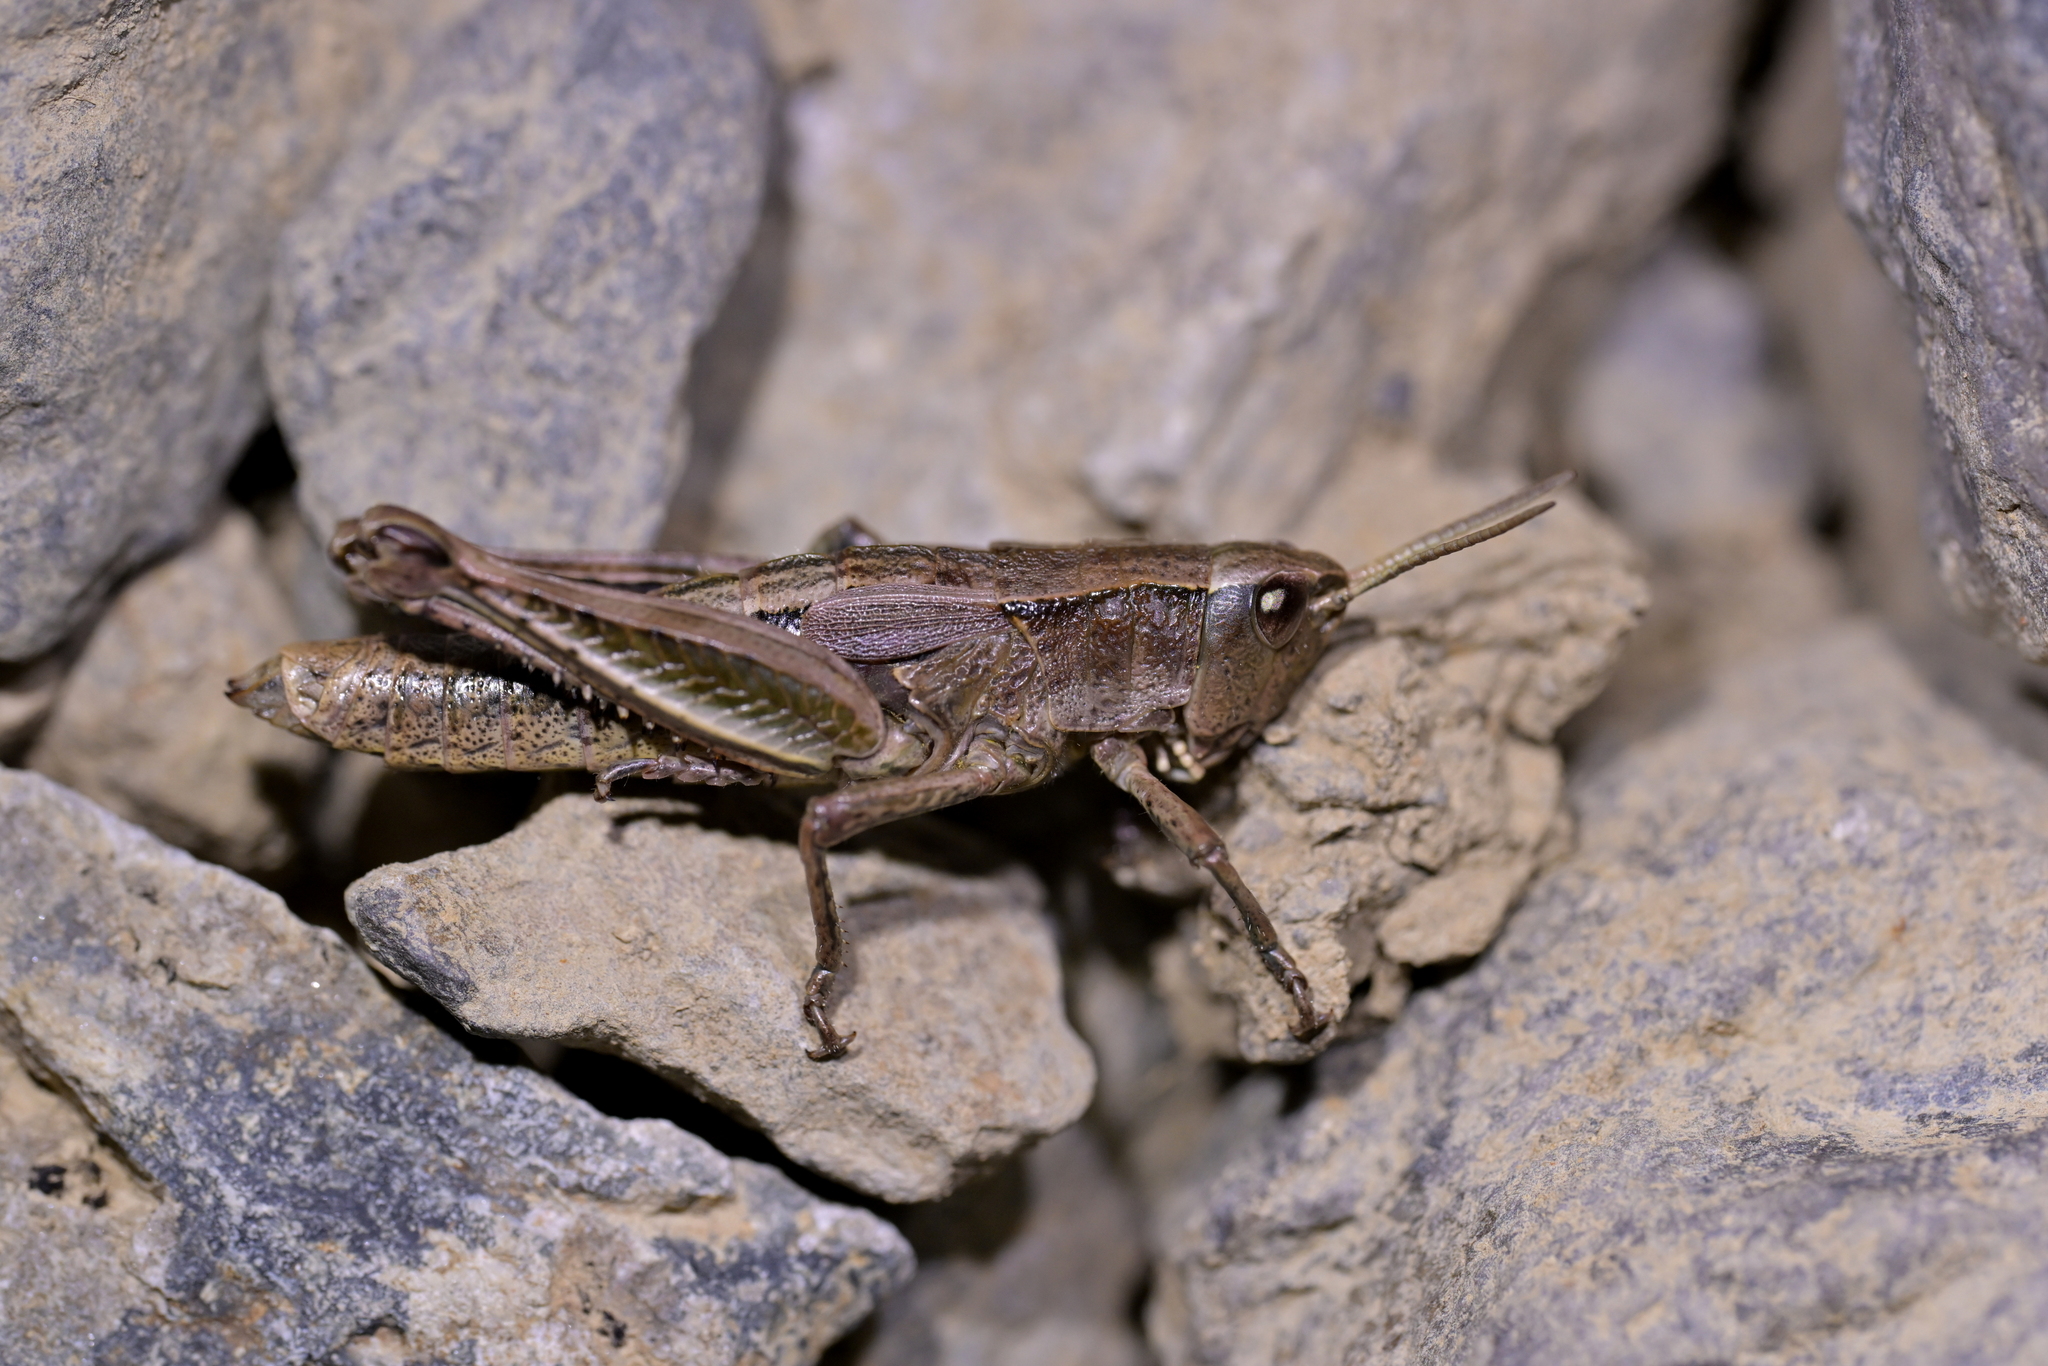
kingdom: Animalia
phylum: Arthropoda
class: Insecta
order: Orthoptera
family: Acrididae
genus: Sigaus
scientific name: Sigaus piliferus
